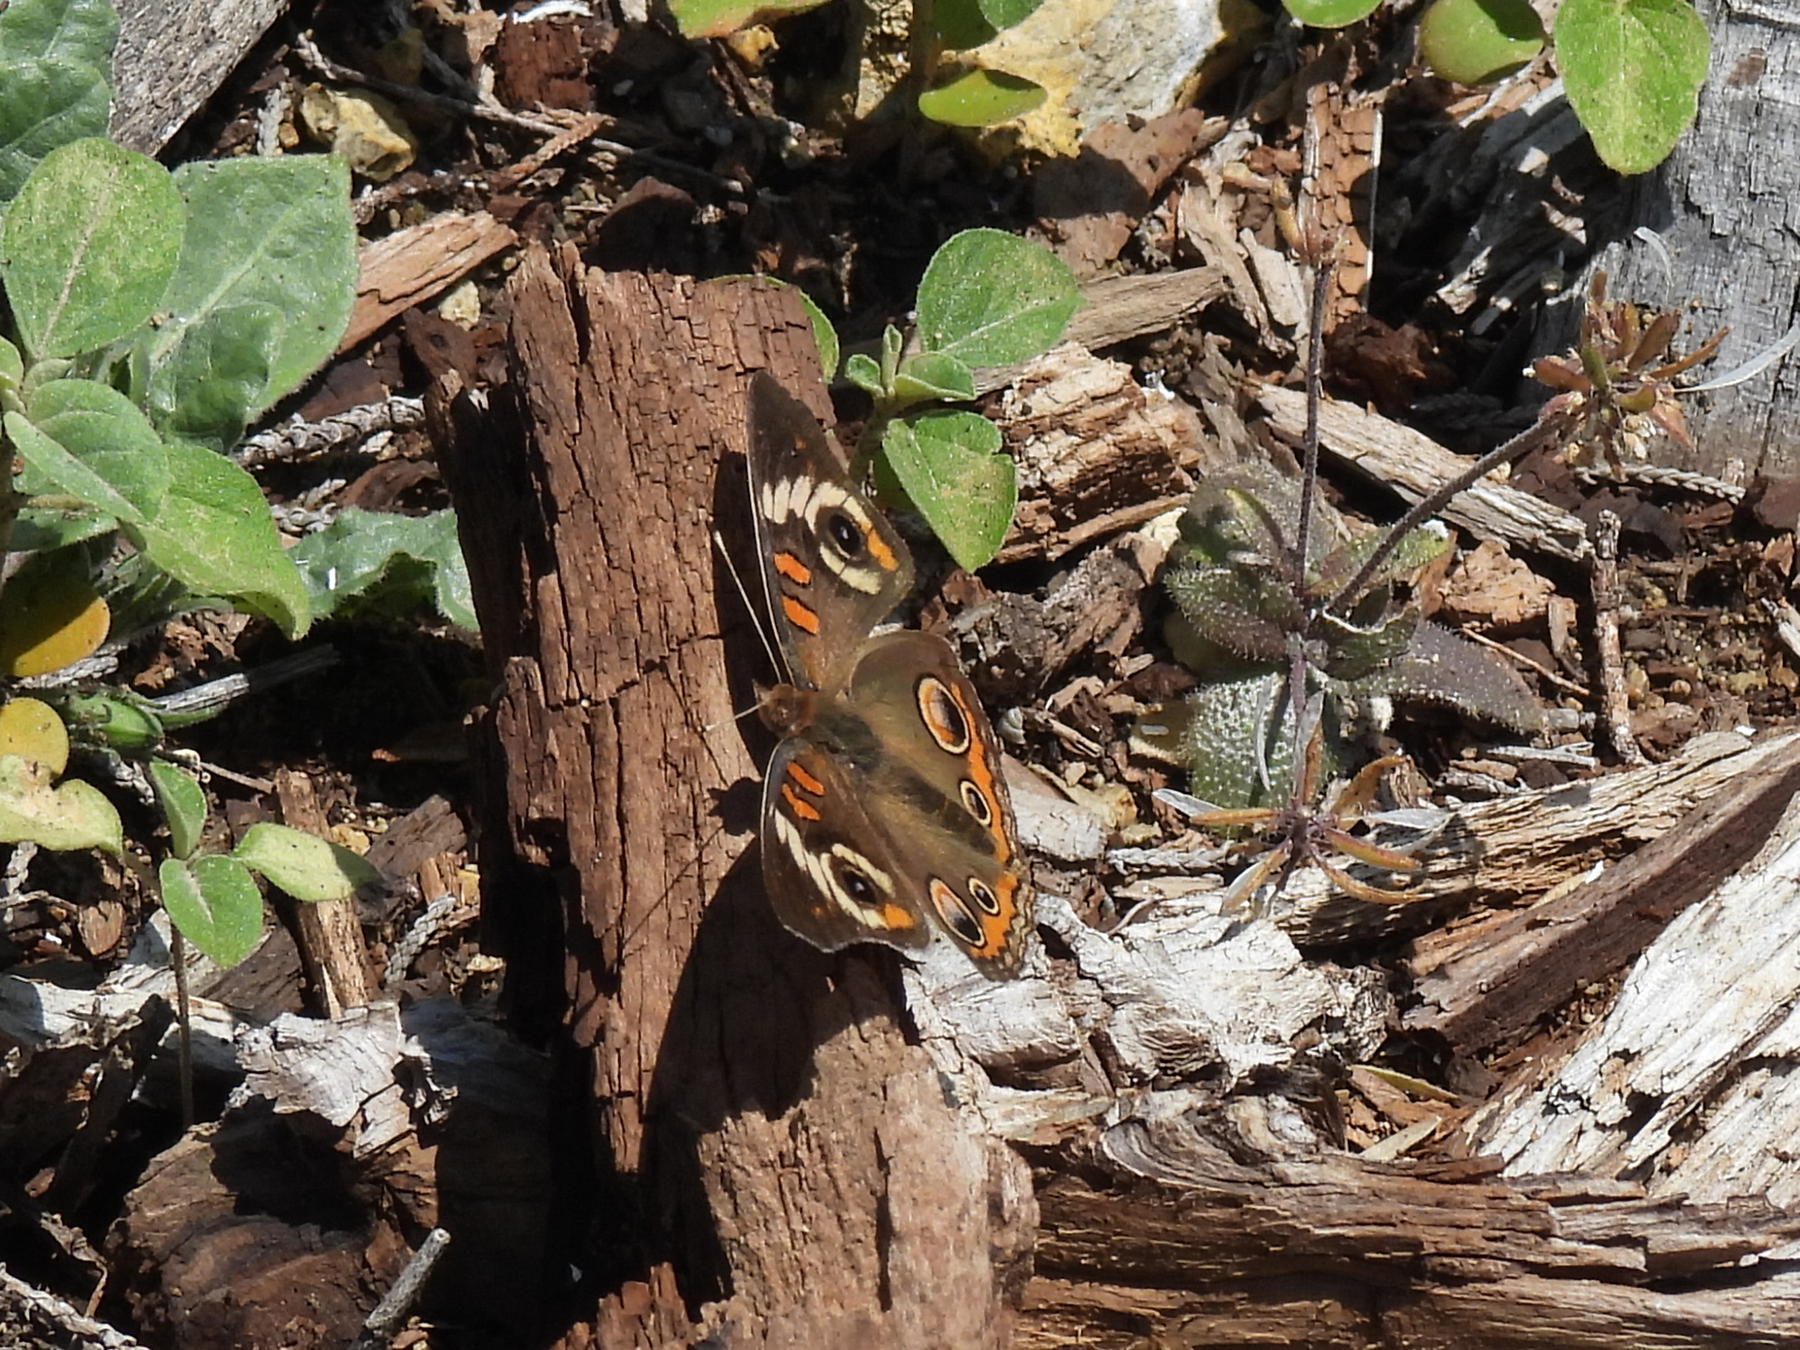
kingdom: Animalia
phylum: Arthropoda
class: Insecta
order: Lepidoptera
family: Nymphalidae
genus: Junonia
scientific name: Junonia coenia
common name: Common buckeye
